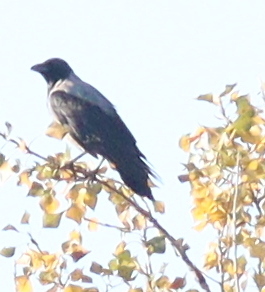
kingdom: Animalia
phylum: Chordata
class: Aves
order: Passeriformes
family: Corvidae
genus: Corvus
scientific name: Corvus cornix
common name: Hooded crow
